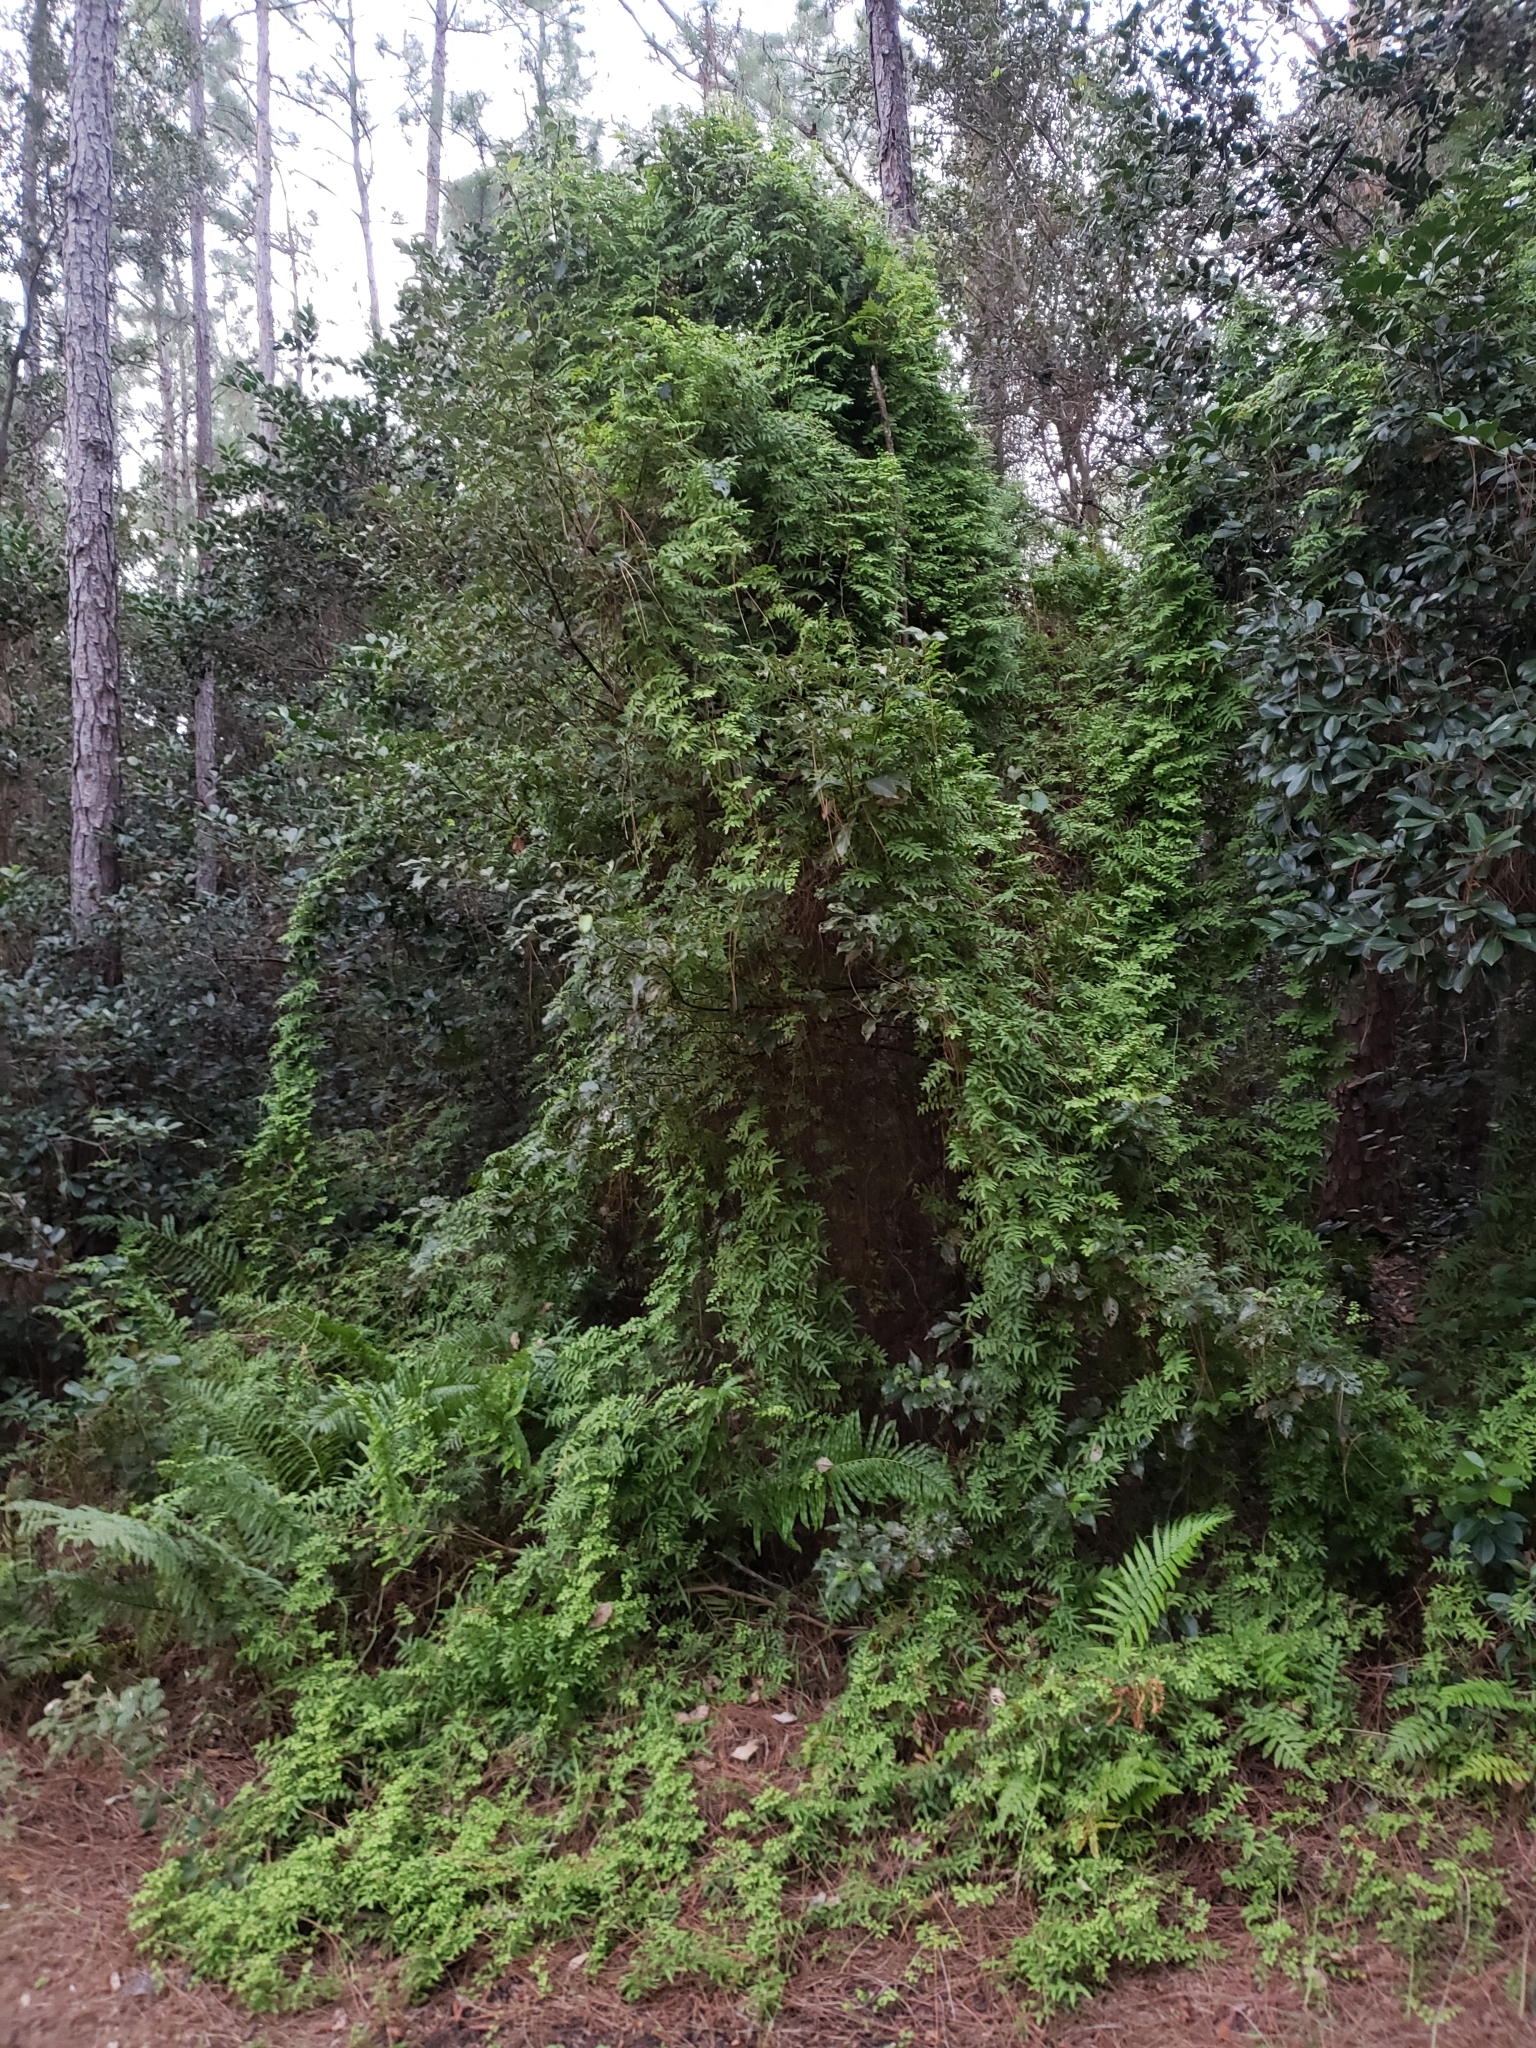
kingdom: Plantae
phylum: Tracheophyta
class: Polypodiopsida
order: Schizaeales
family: Lygodiaceae
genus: Lygodium
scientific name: Lygodium microphyllum
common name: Small-leaf climbing fern
